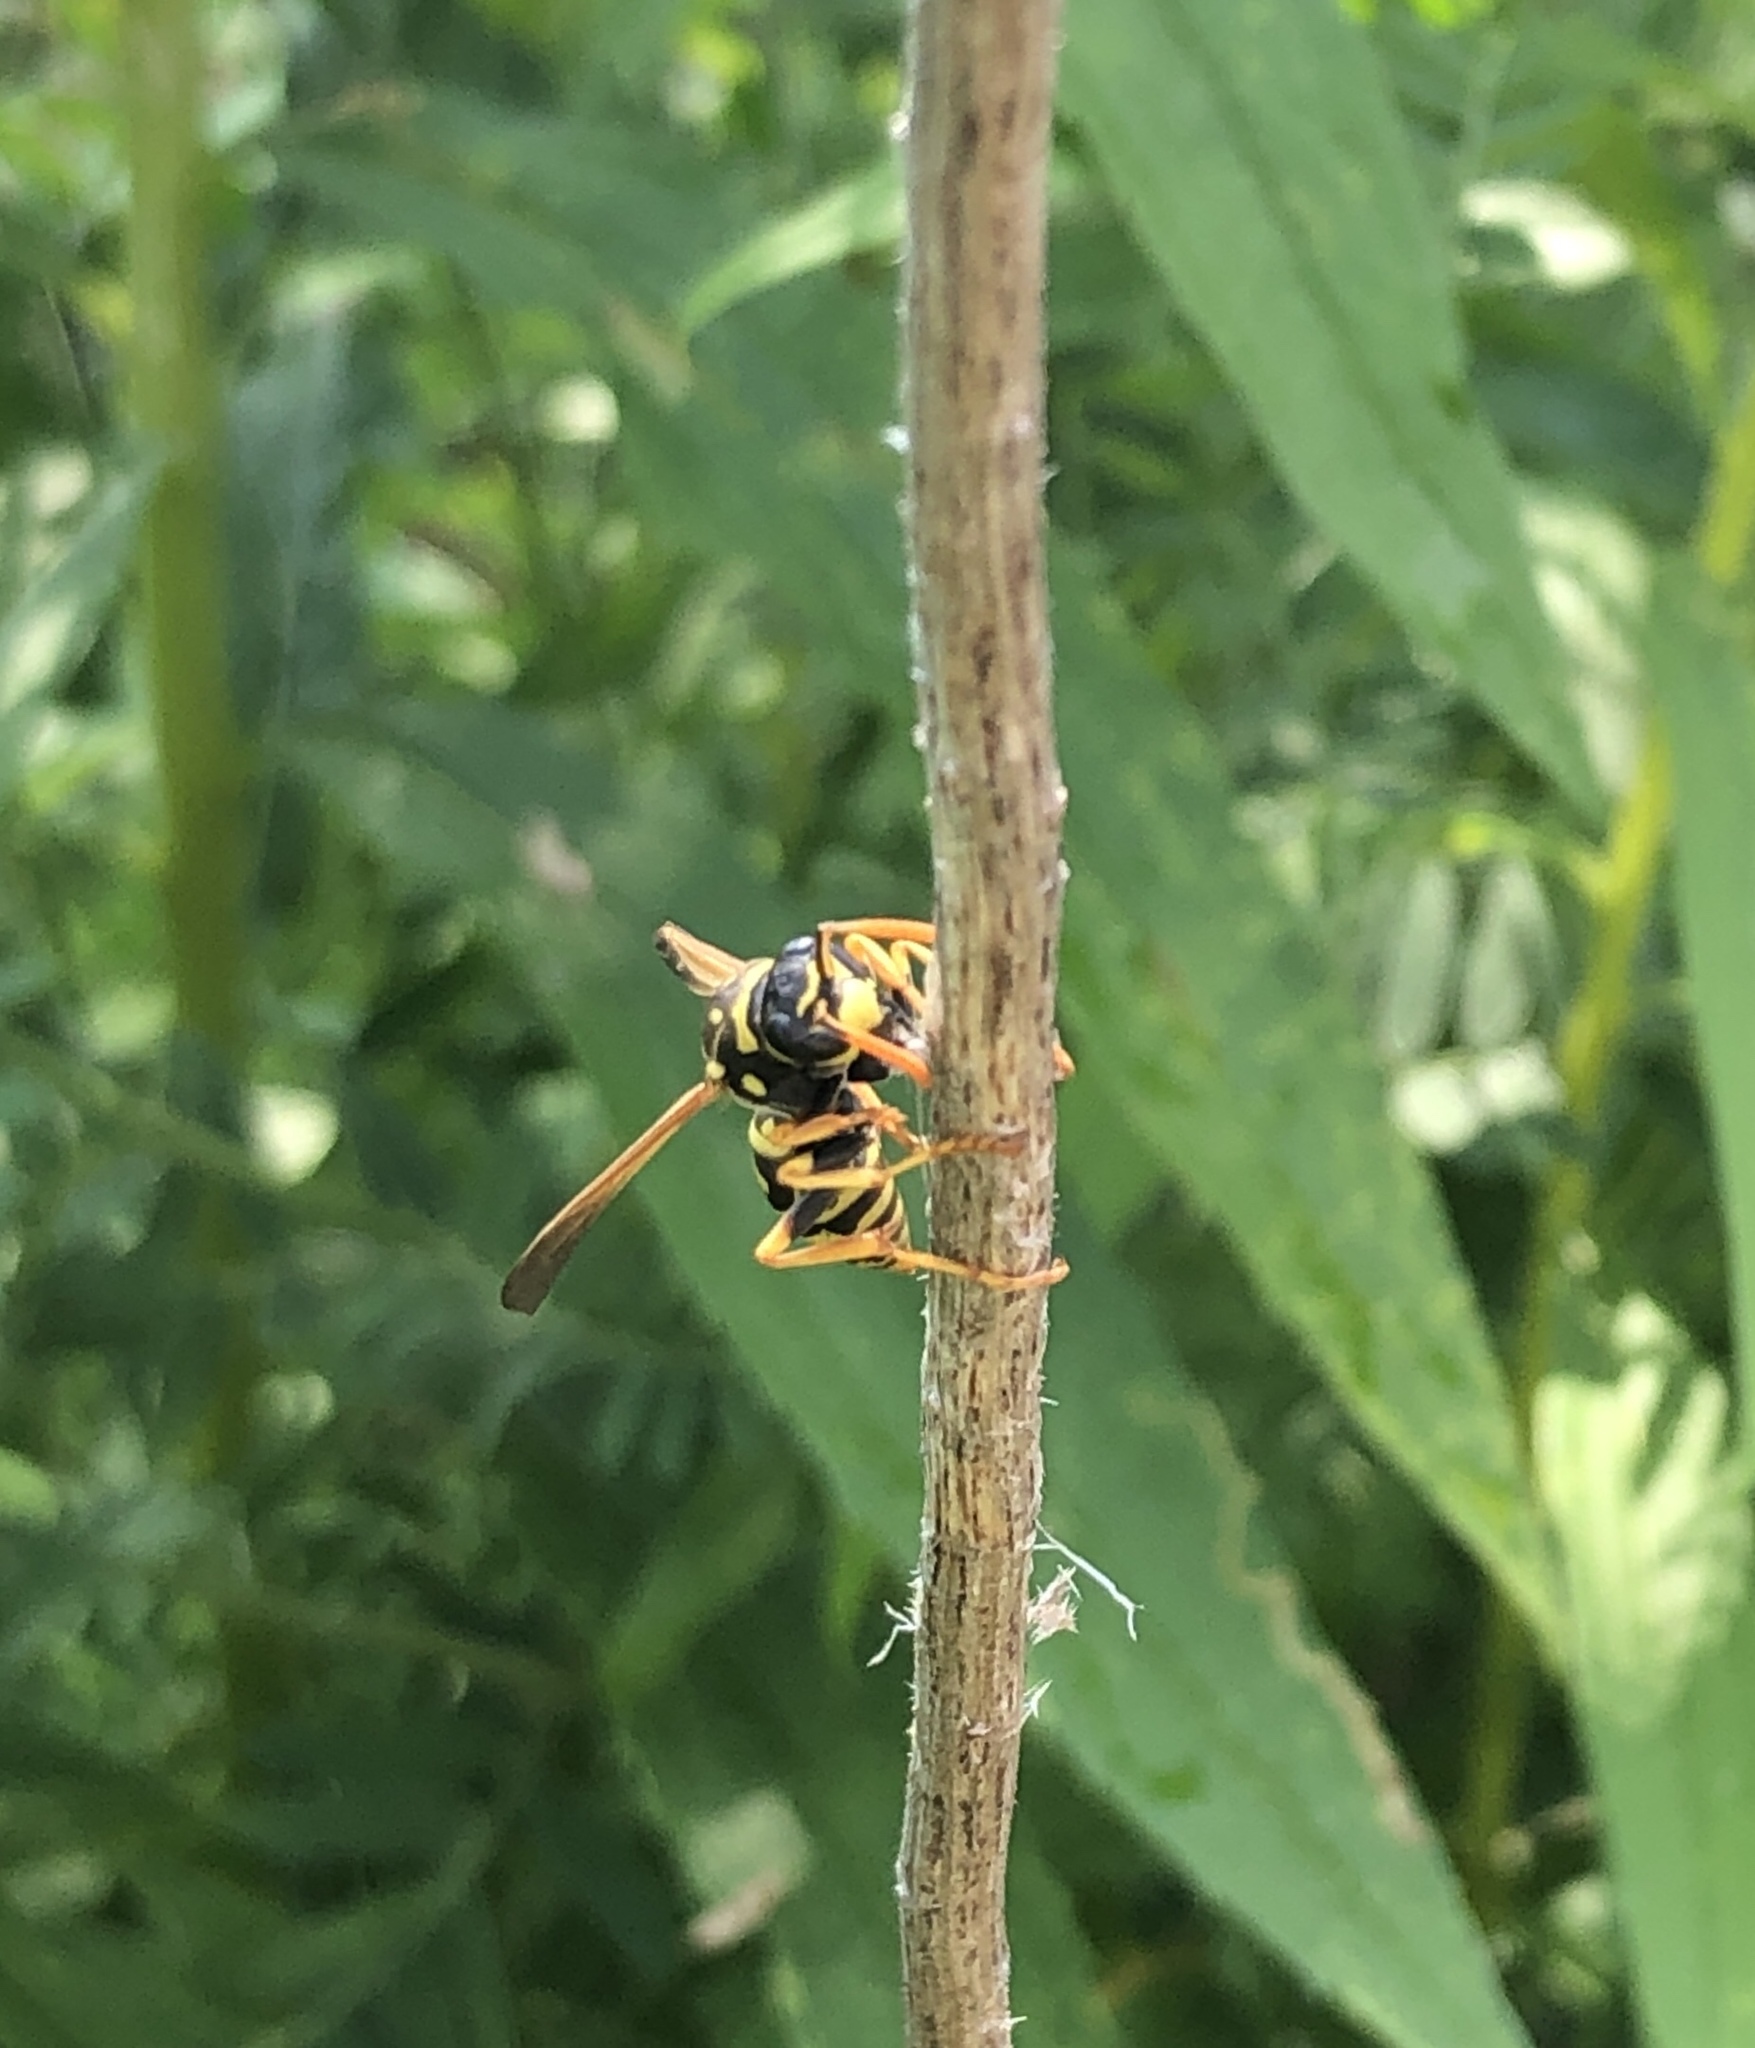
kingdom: Animalia
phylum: Arthropoda
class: Insecta
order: Hymenoptera
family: Eumenidae
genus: Polistes
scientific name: Polistes dominula
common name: Paper wasp
